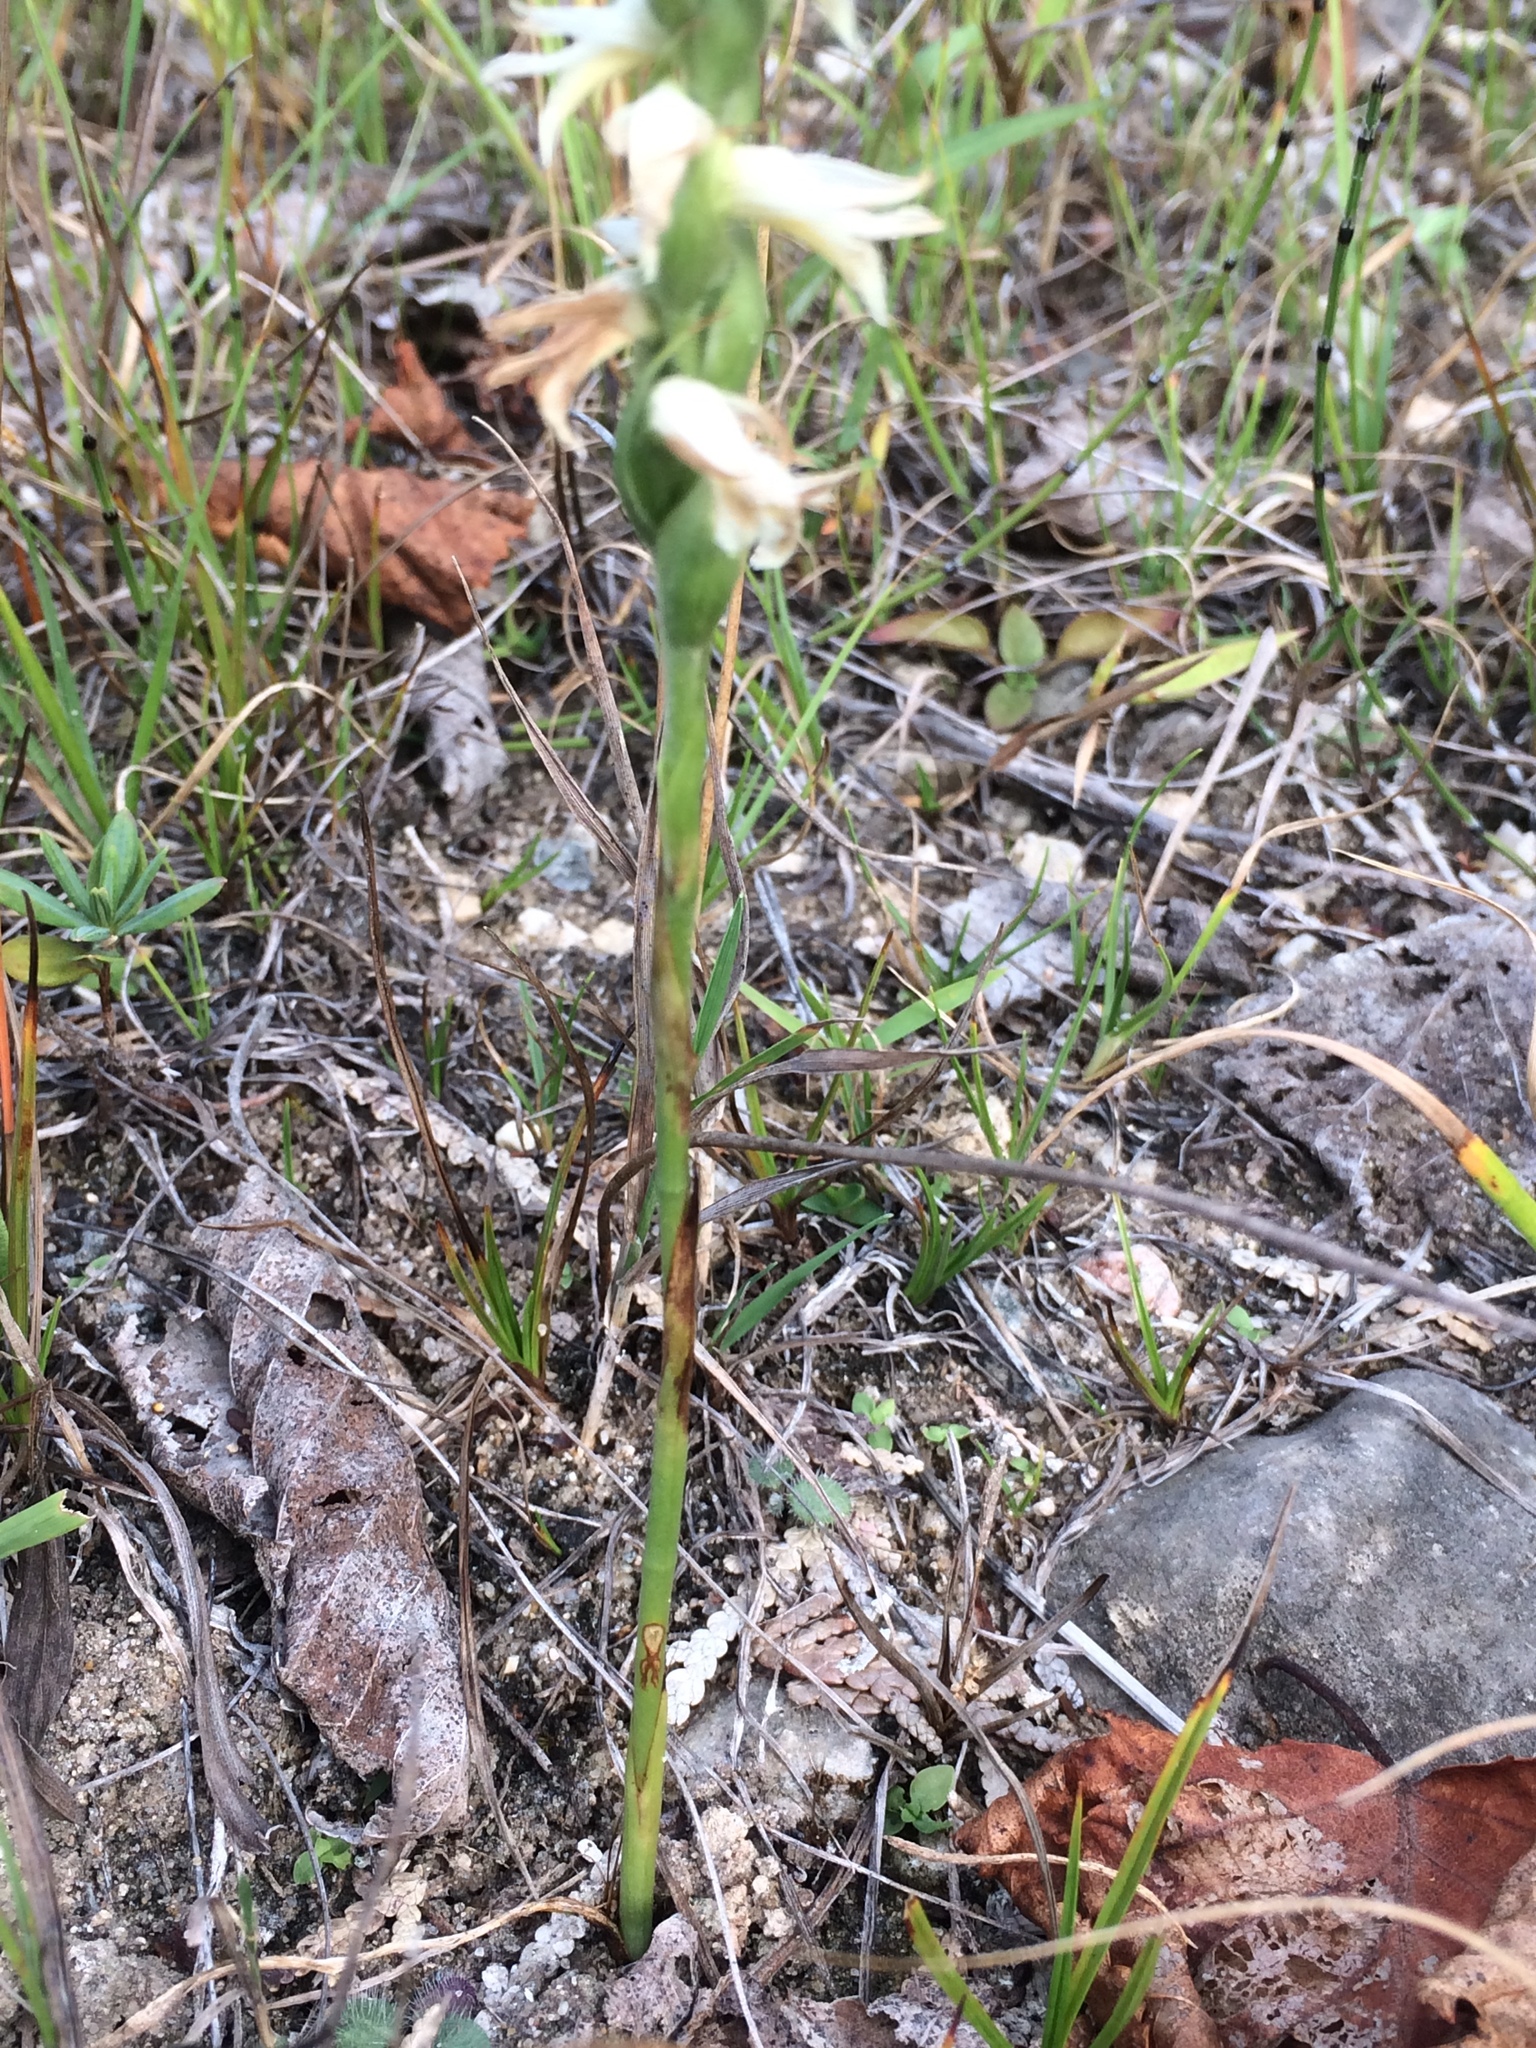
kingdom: Plantae
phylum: Tracheophyta
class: Liliopsida
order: Asparagales
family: Orchidaceae
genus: Spiranthes
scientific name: Spiranthes magnicamporum
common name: Great plains ladies'-tresses
